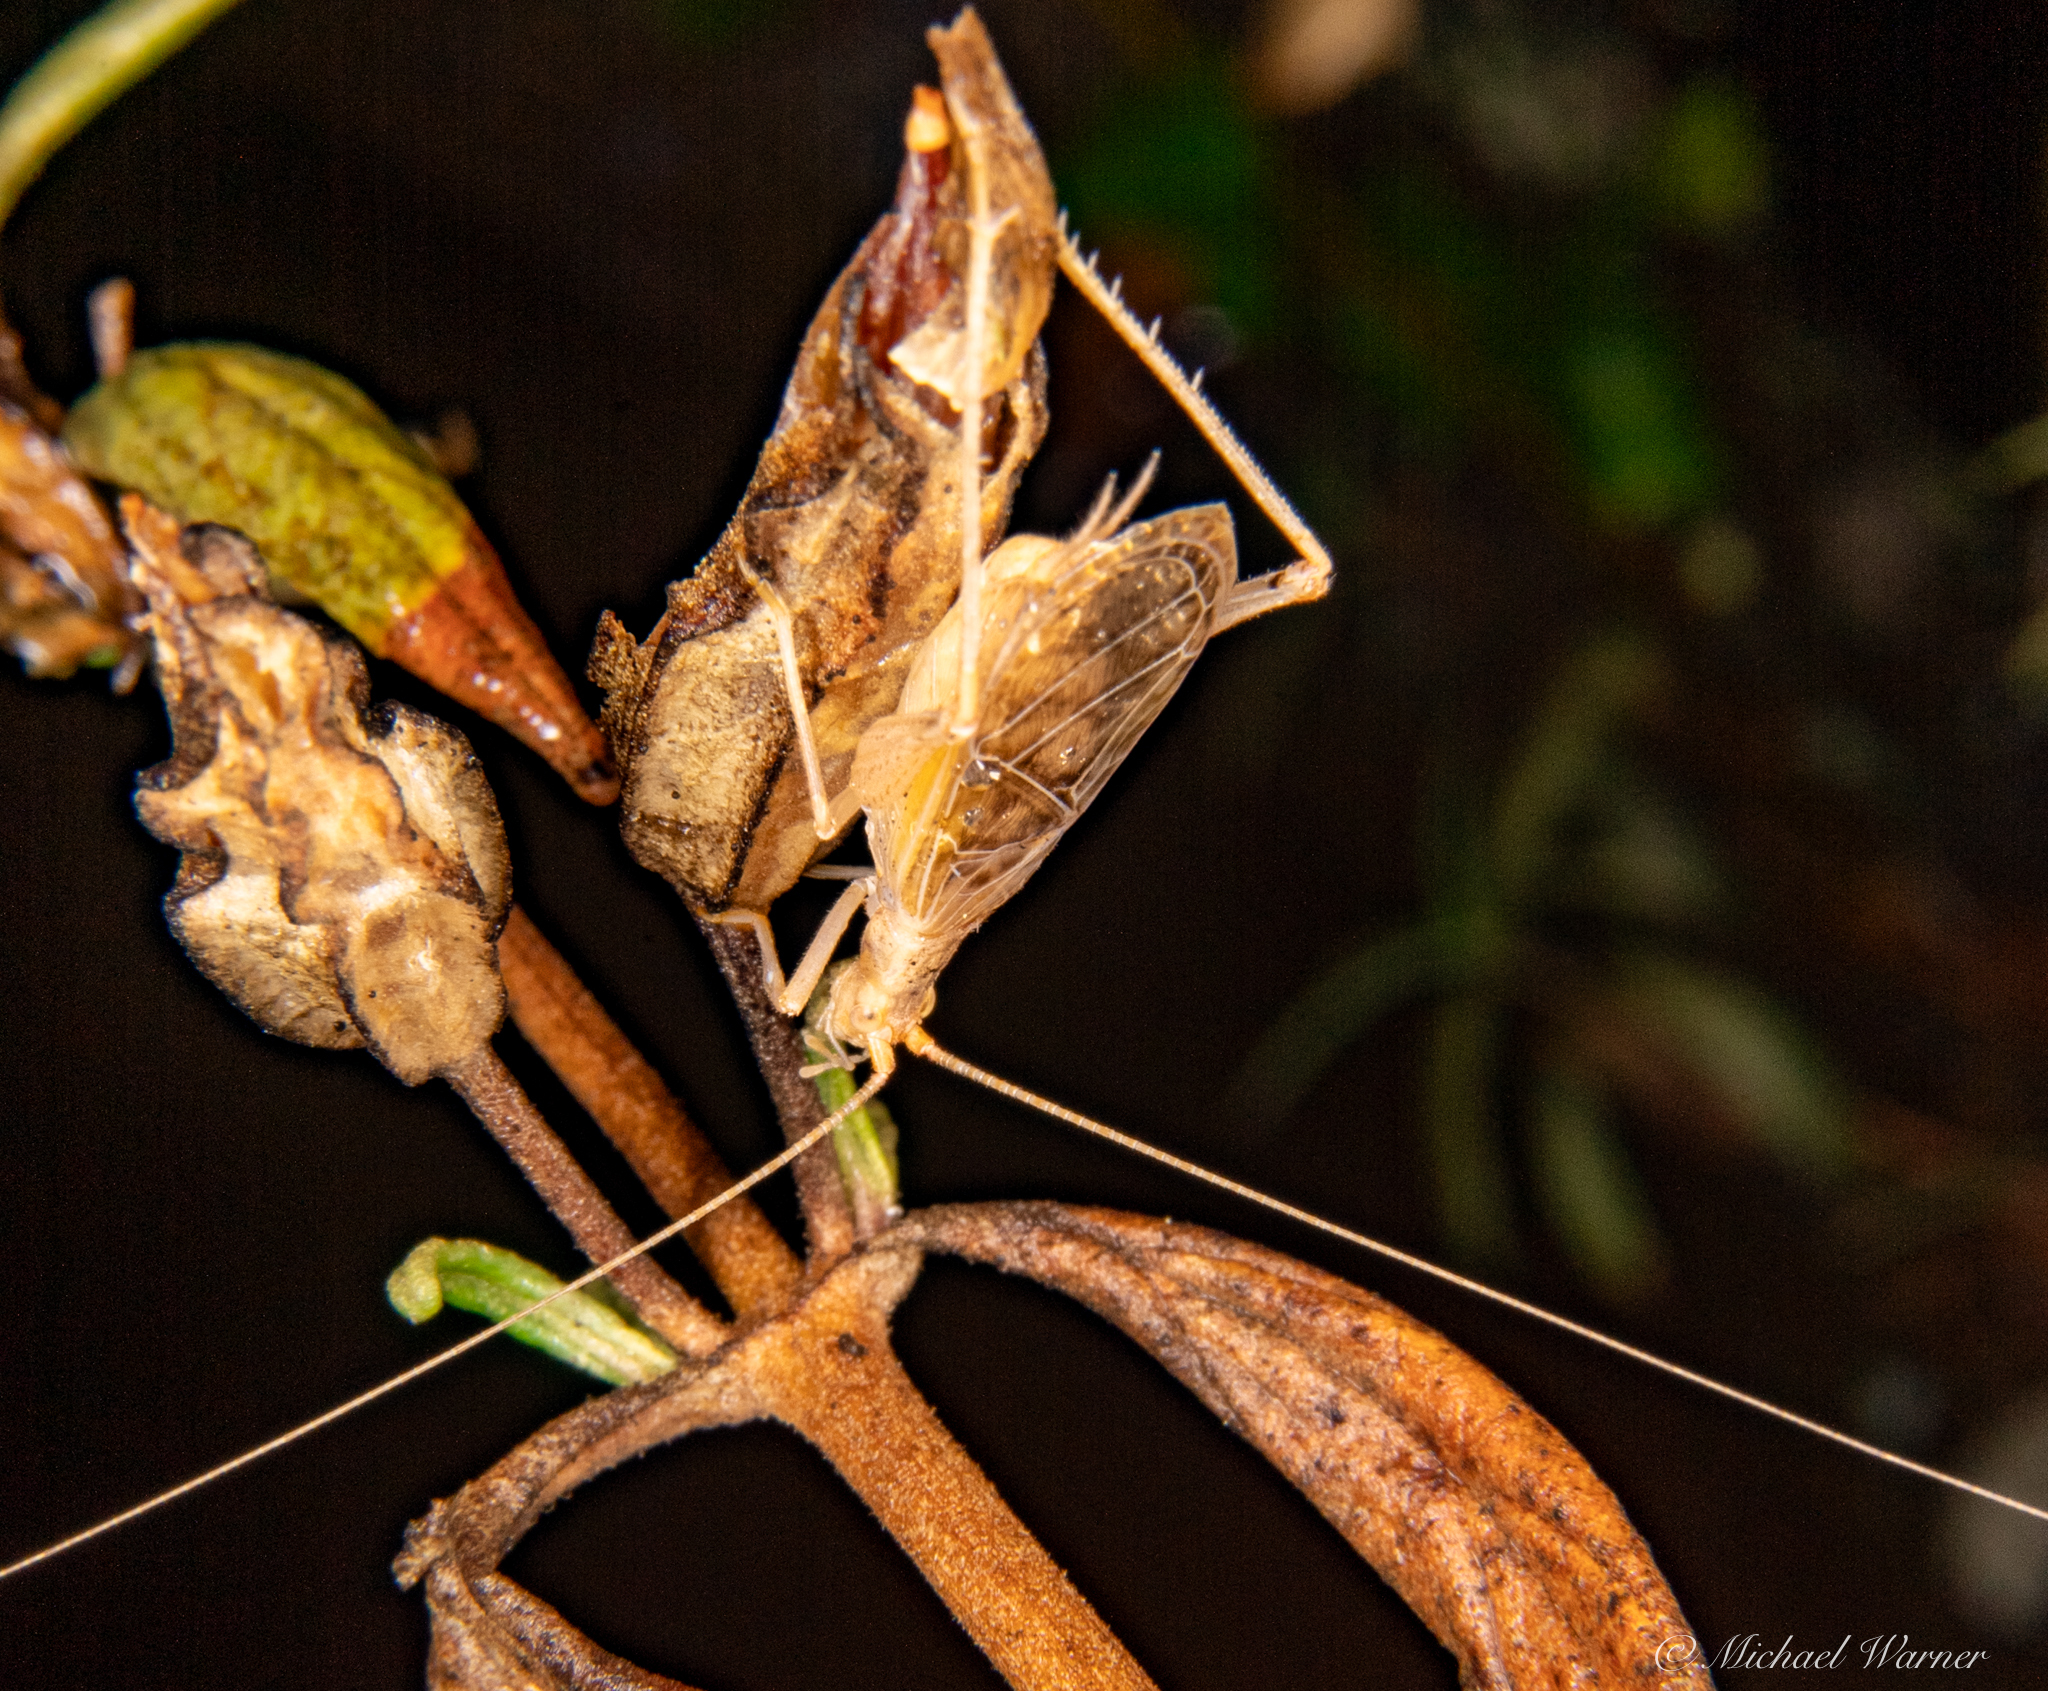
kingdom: Animalia
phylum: Arthropoda
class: Insecta
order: Orthoptera
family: Gryllidae
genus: Oecanthus
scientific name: Oecanthus californicus
